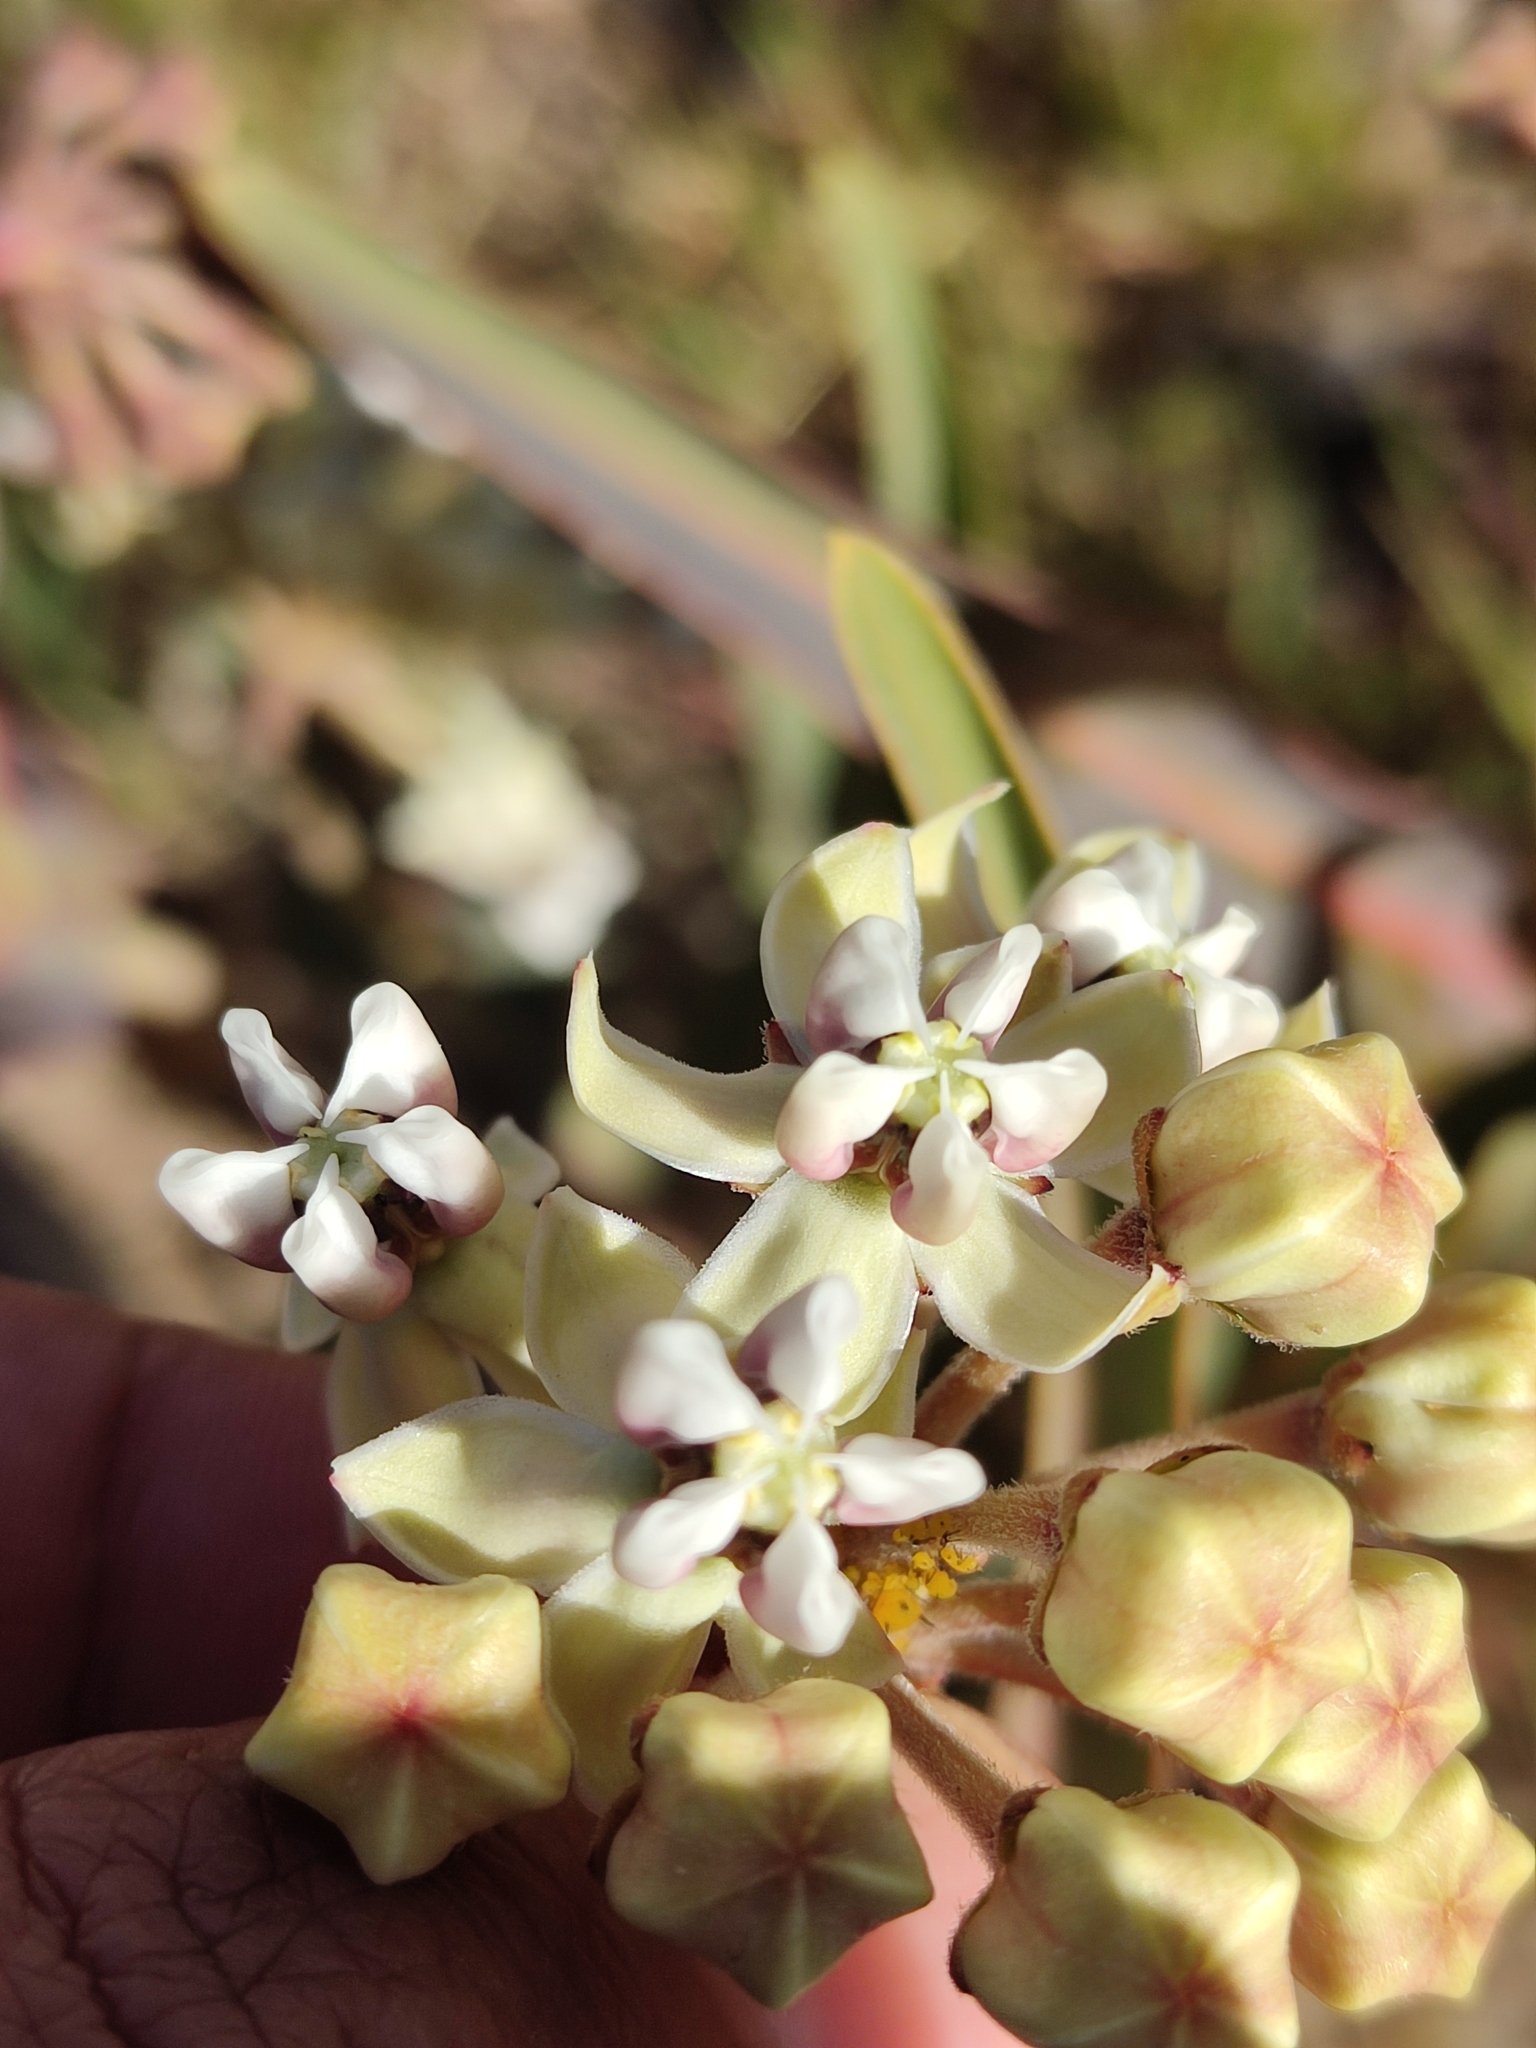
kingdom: Plantae
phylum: Tracheophyta
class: Magnoliopsida
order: Gentianales
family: Apocynaceae
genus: Asclepias
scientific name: Asclepias glaucescens
